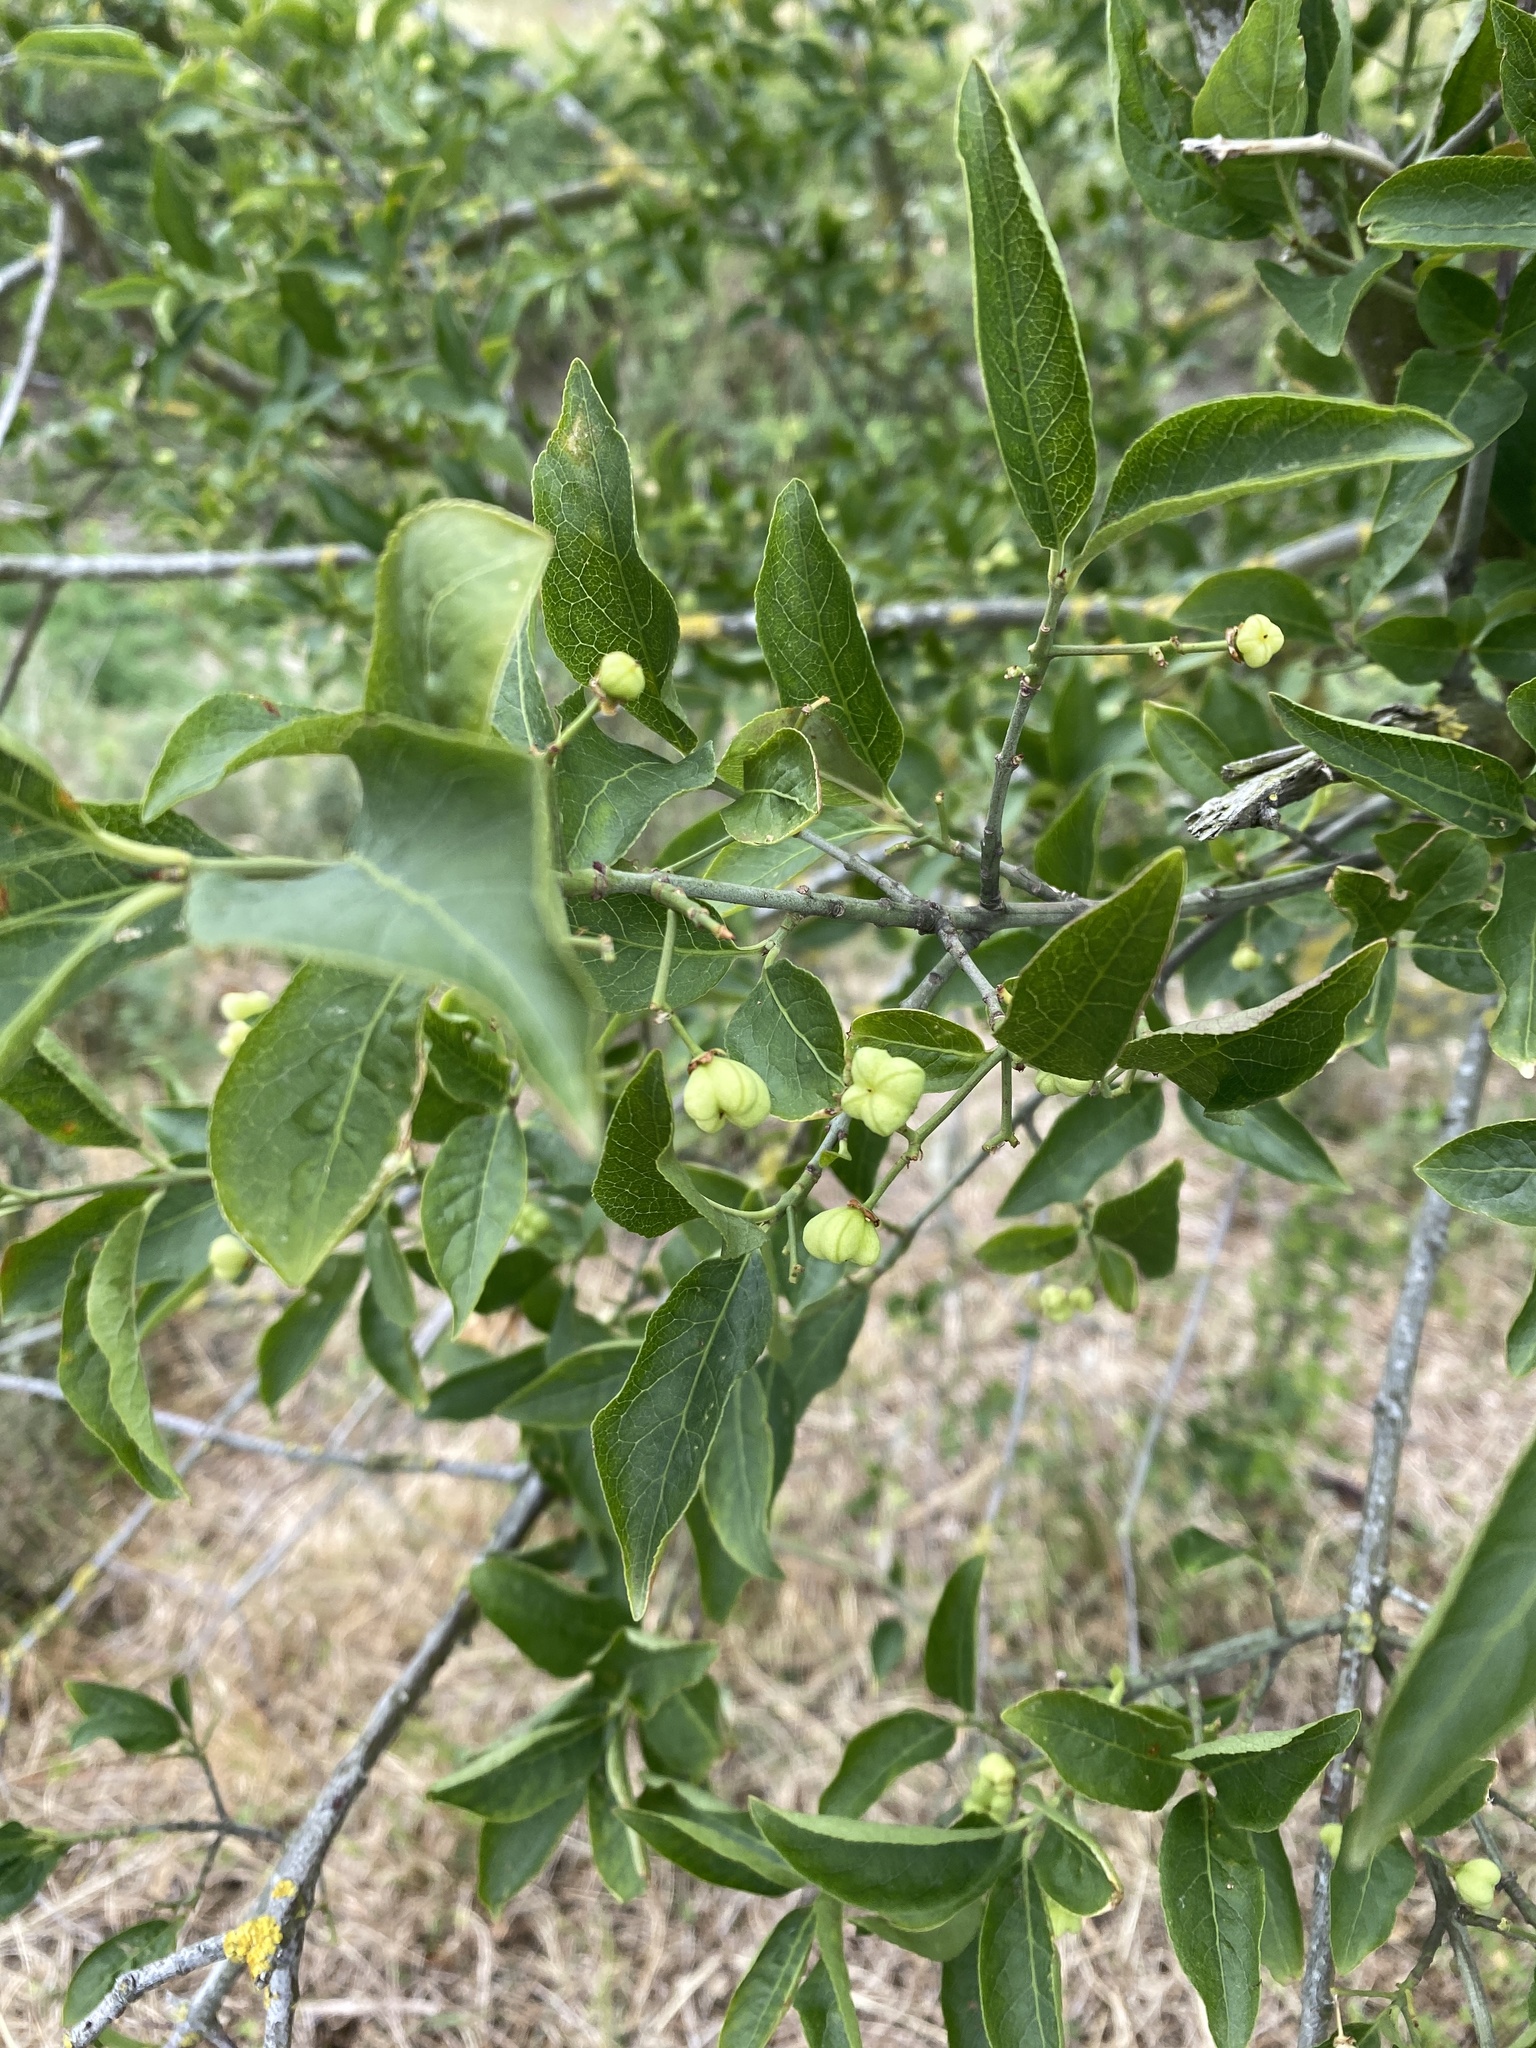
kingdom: Plantae
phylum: Tracheophyta
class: Magnoliopsida
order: Celastrales
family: Celastraceae
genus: Euonymus
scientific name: Euonymus europaeus
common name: Spindle
